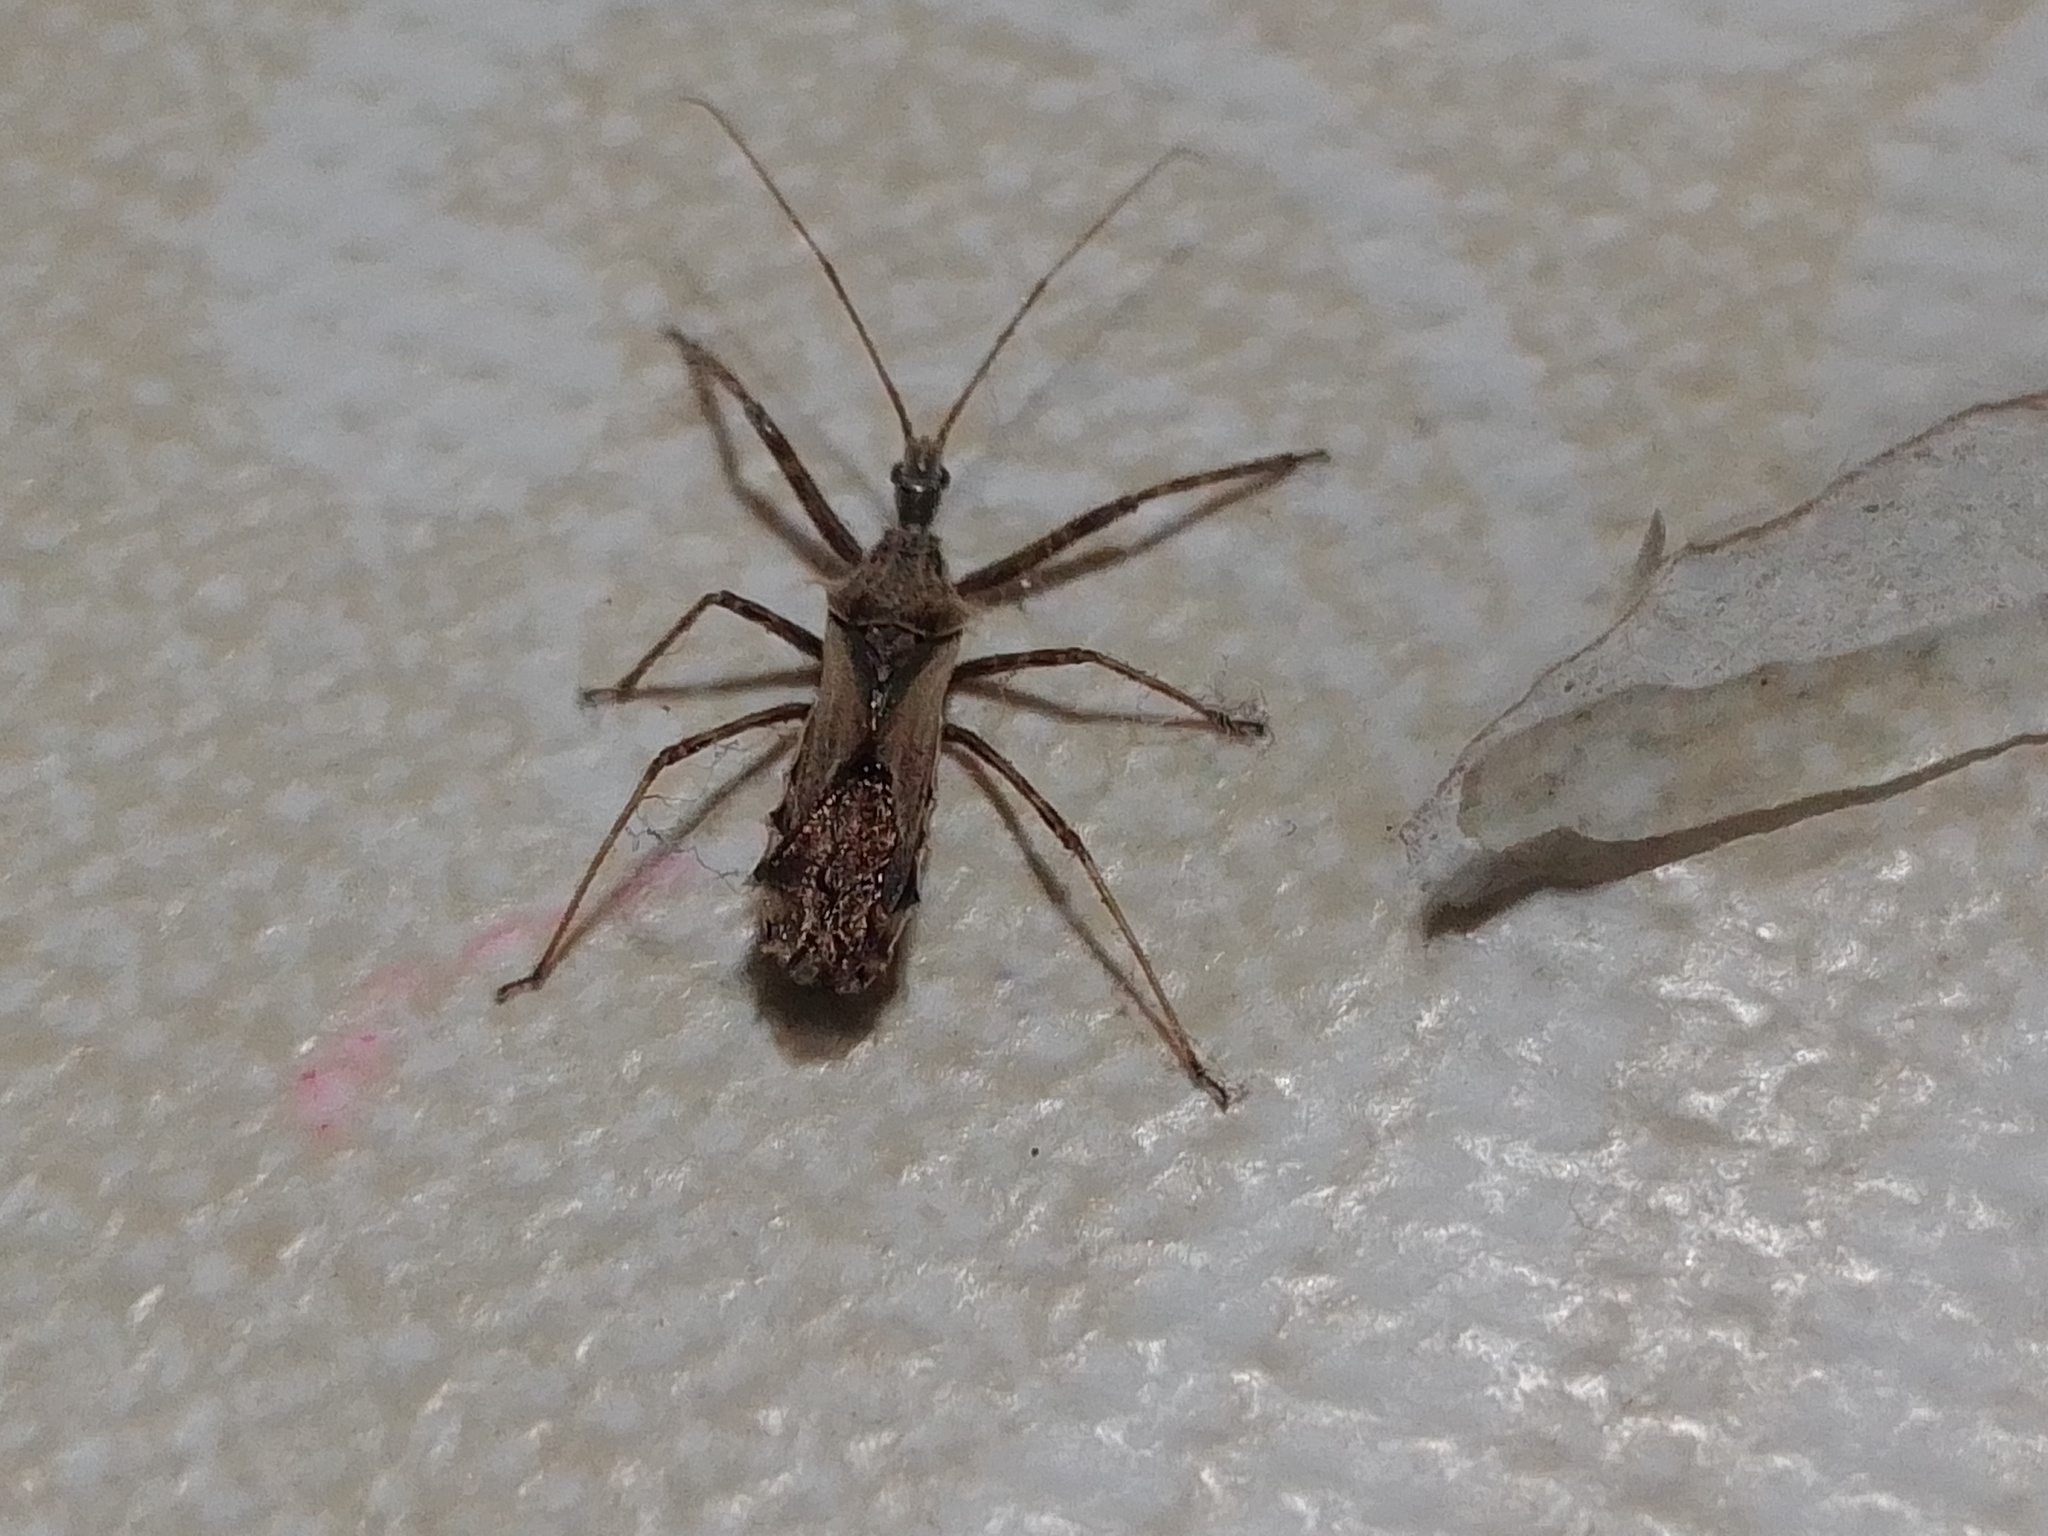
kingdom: Animalia
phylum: Arthropoda
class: Insecta
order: Hemiptera
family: Reduviidae
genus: Atrachelus
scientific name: Atrachelus cinereus
